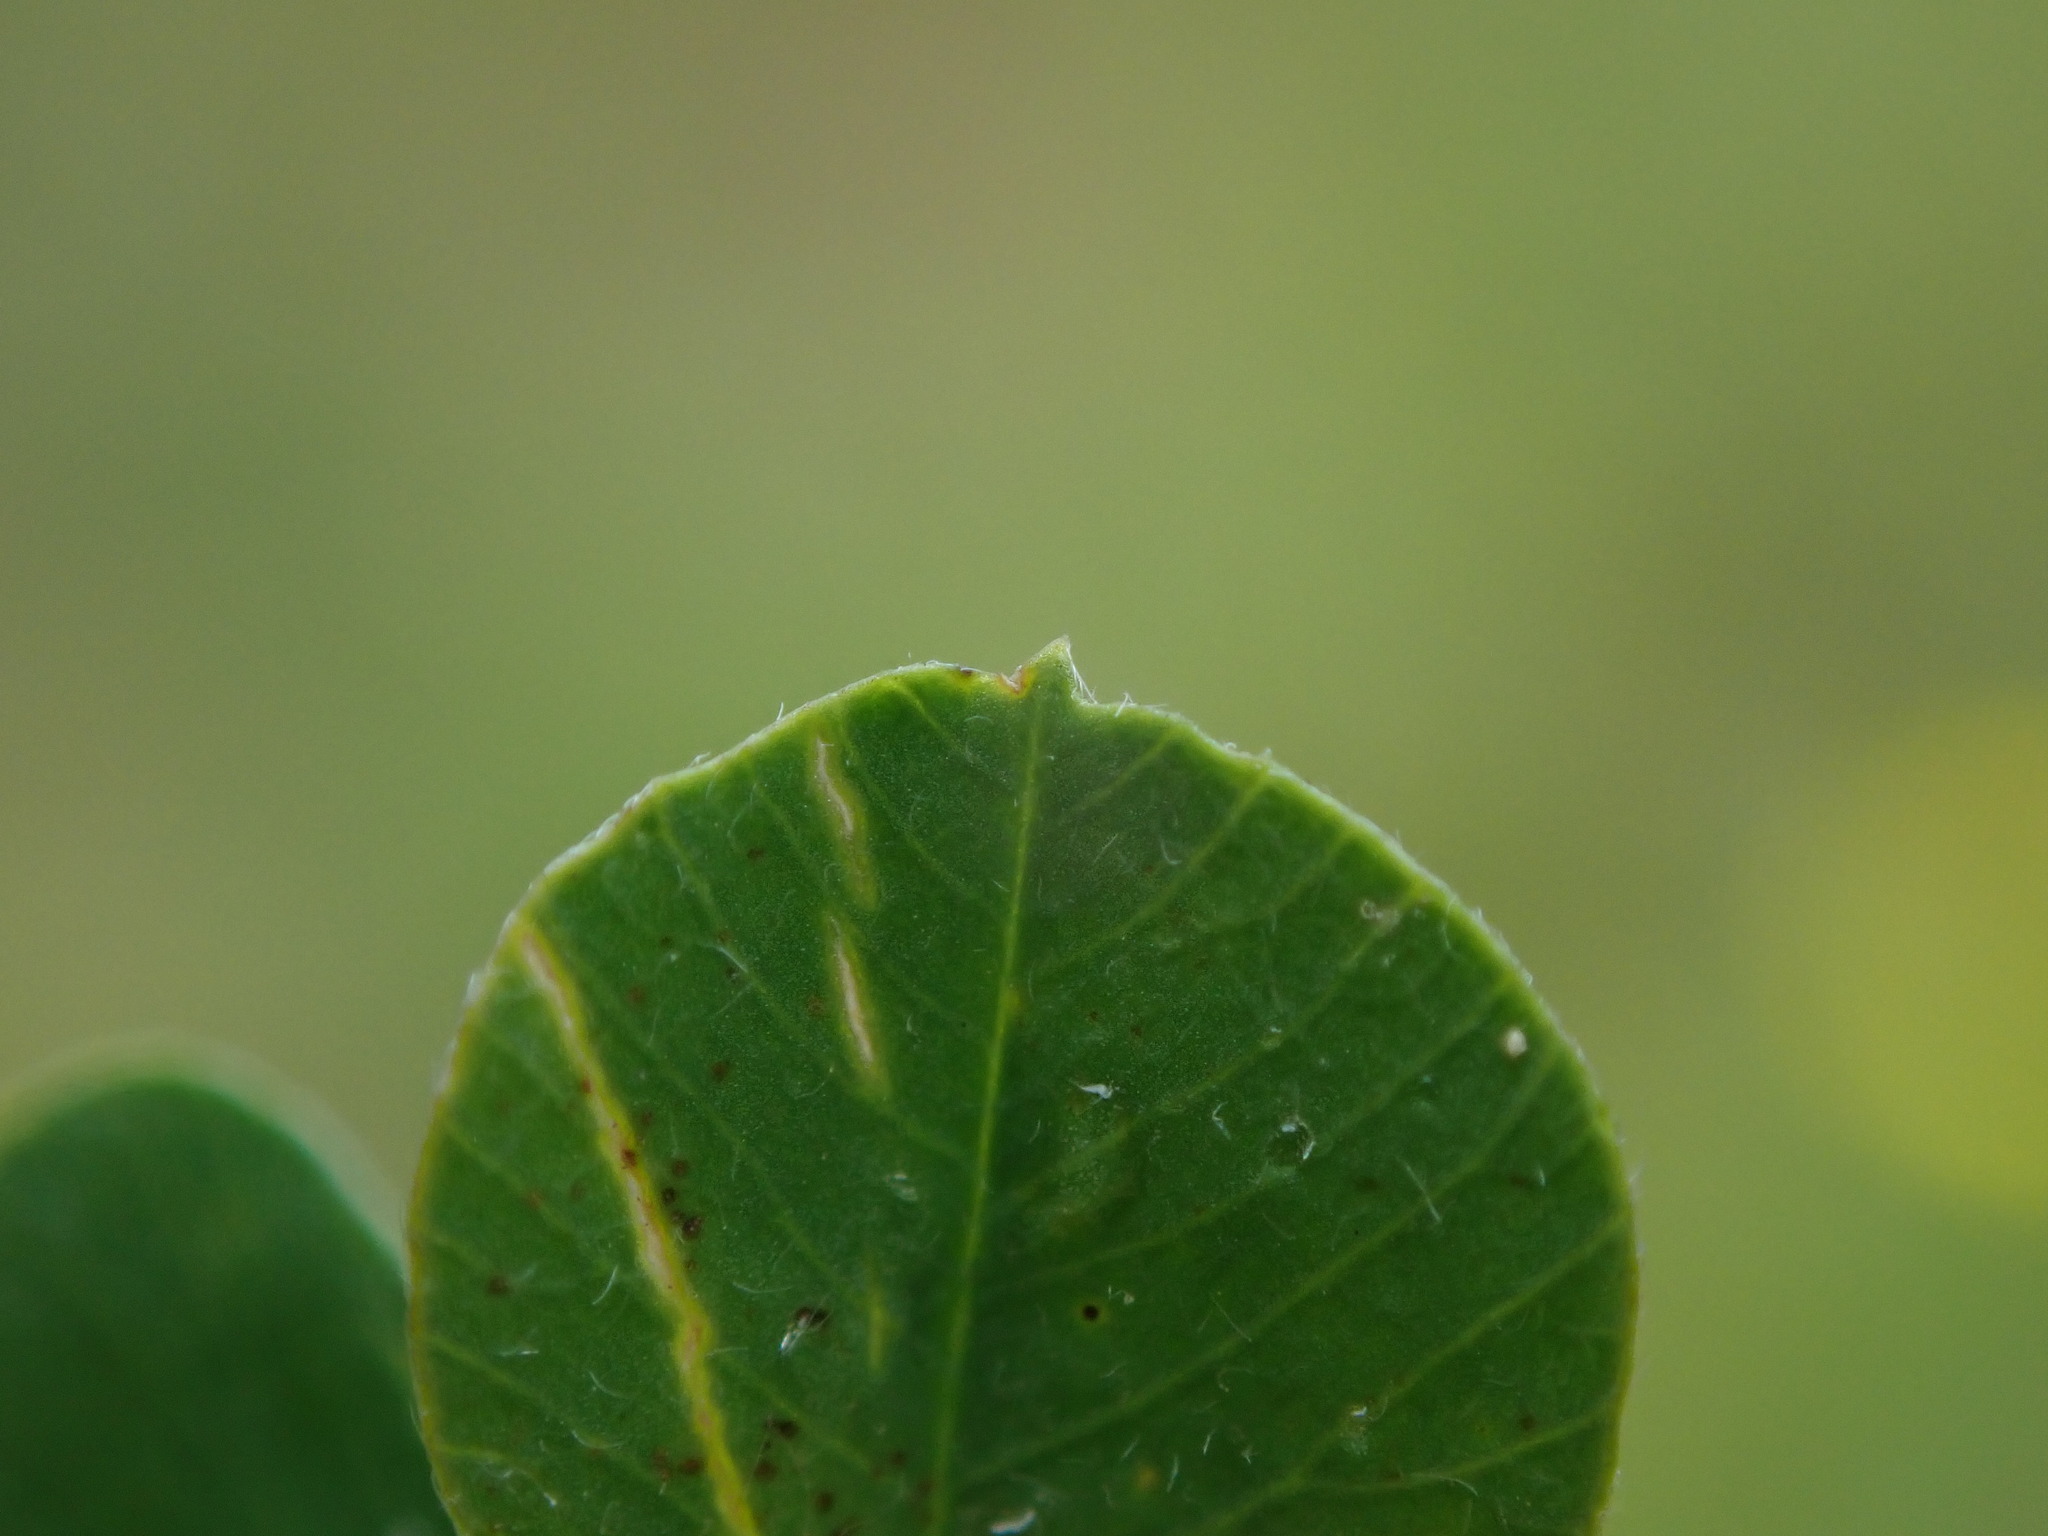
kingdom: Plantae
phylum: Tracheophyta
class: Magnoliopsida
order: Fabales
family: Fabaceae
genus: Medicago
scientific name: Medicago lupulina
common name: Black medick
